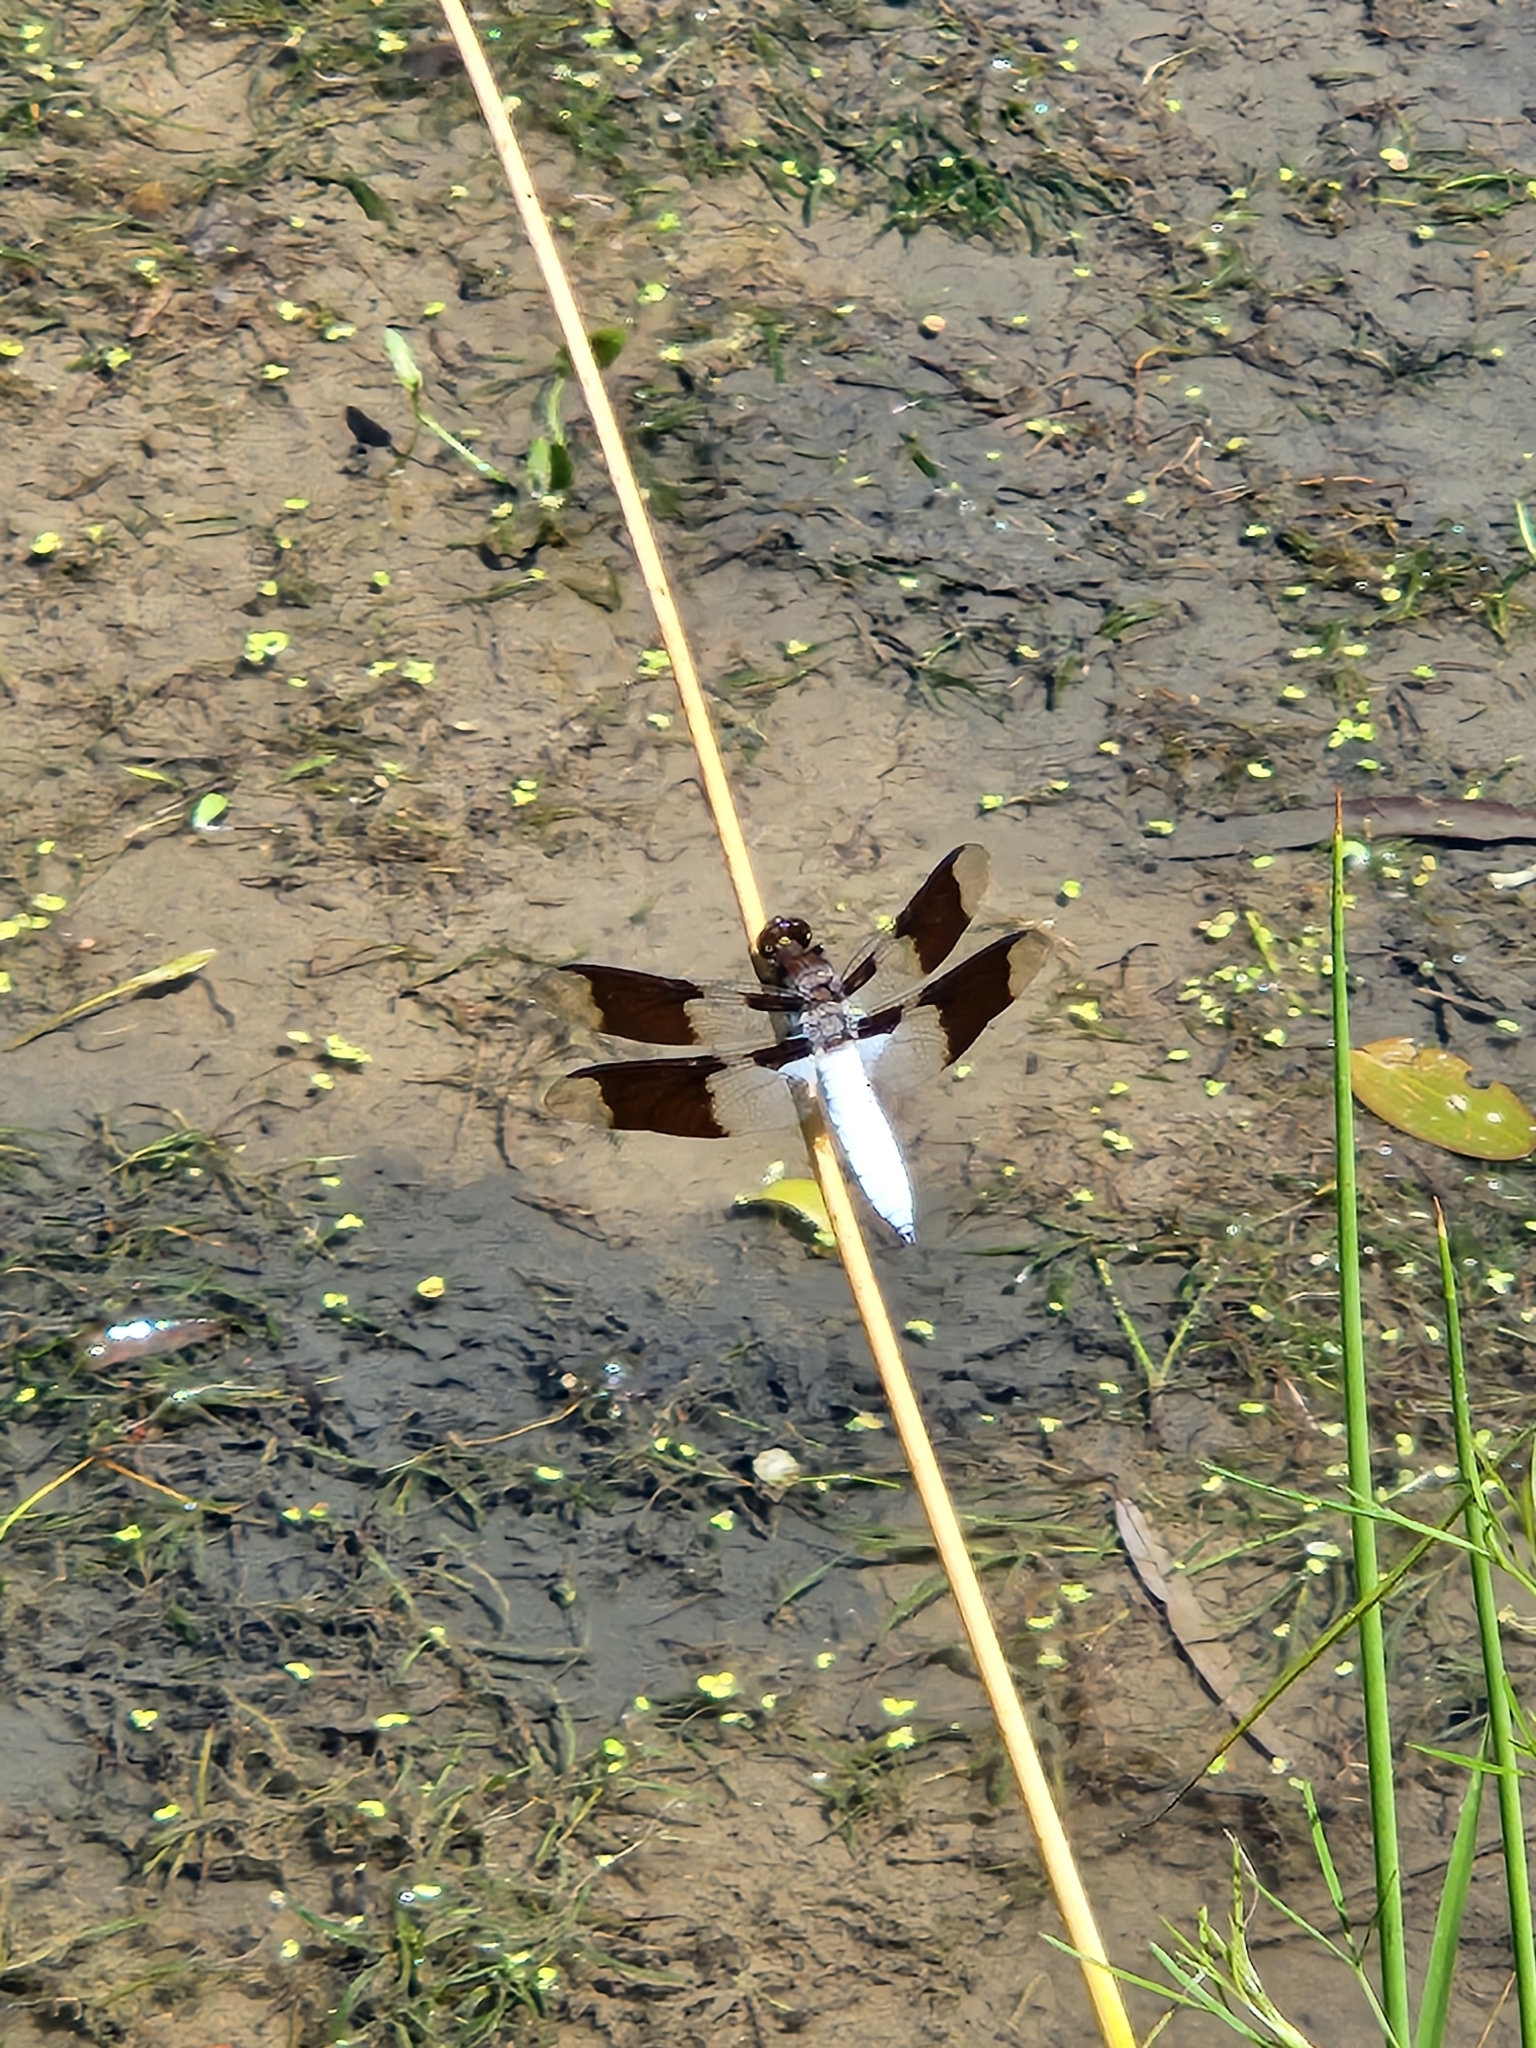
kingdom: Animalia
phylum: Arthropoda
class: Insecta
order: Odonata
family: Libellulidae
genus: Plathemis
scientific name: Plathemis lydia
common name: Common whitetail
